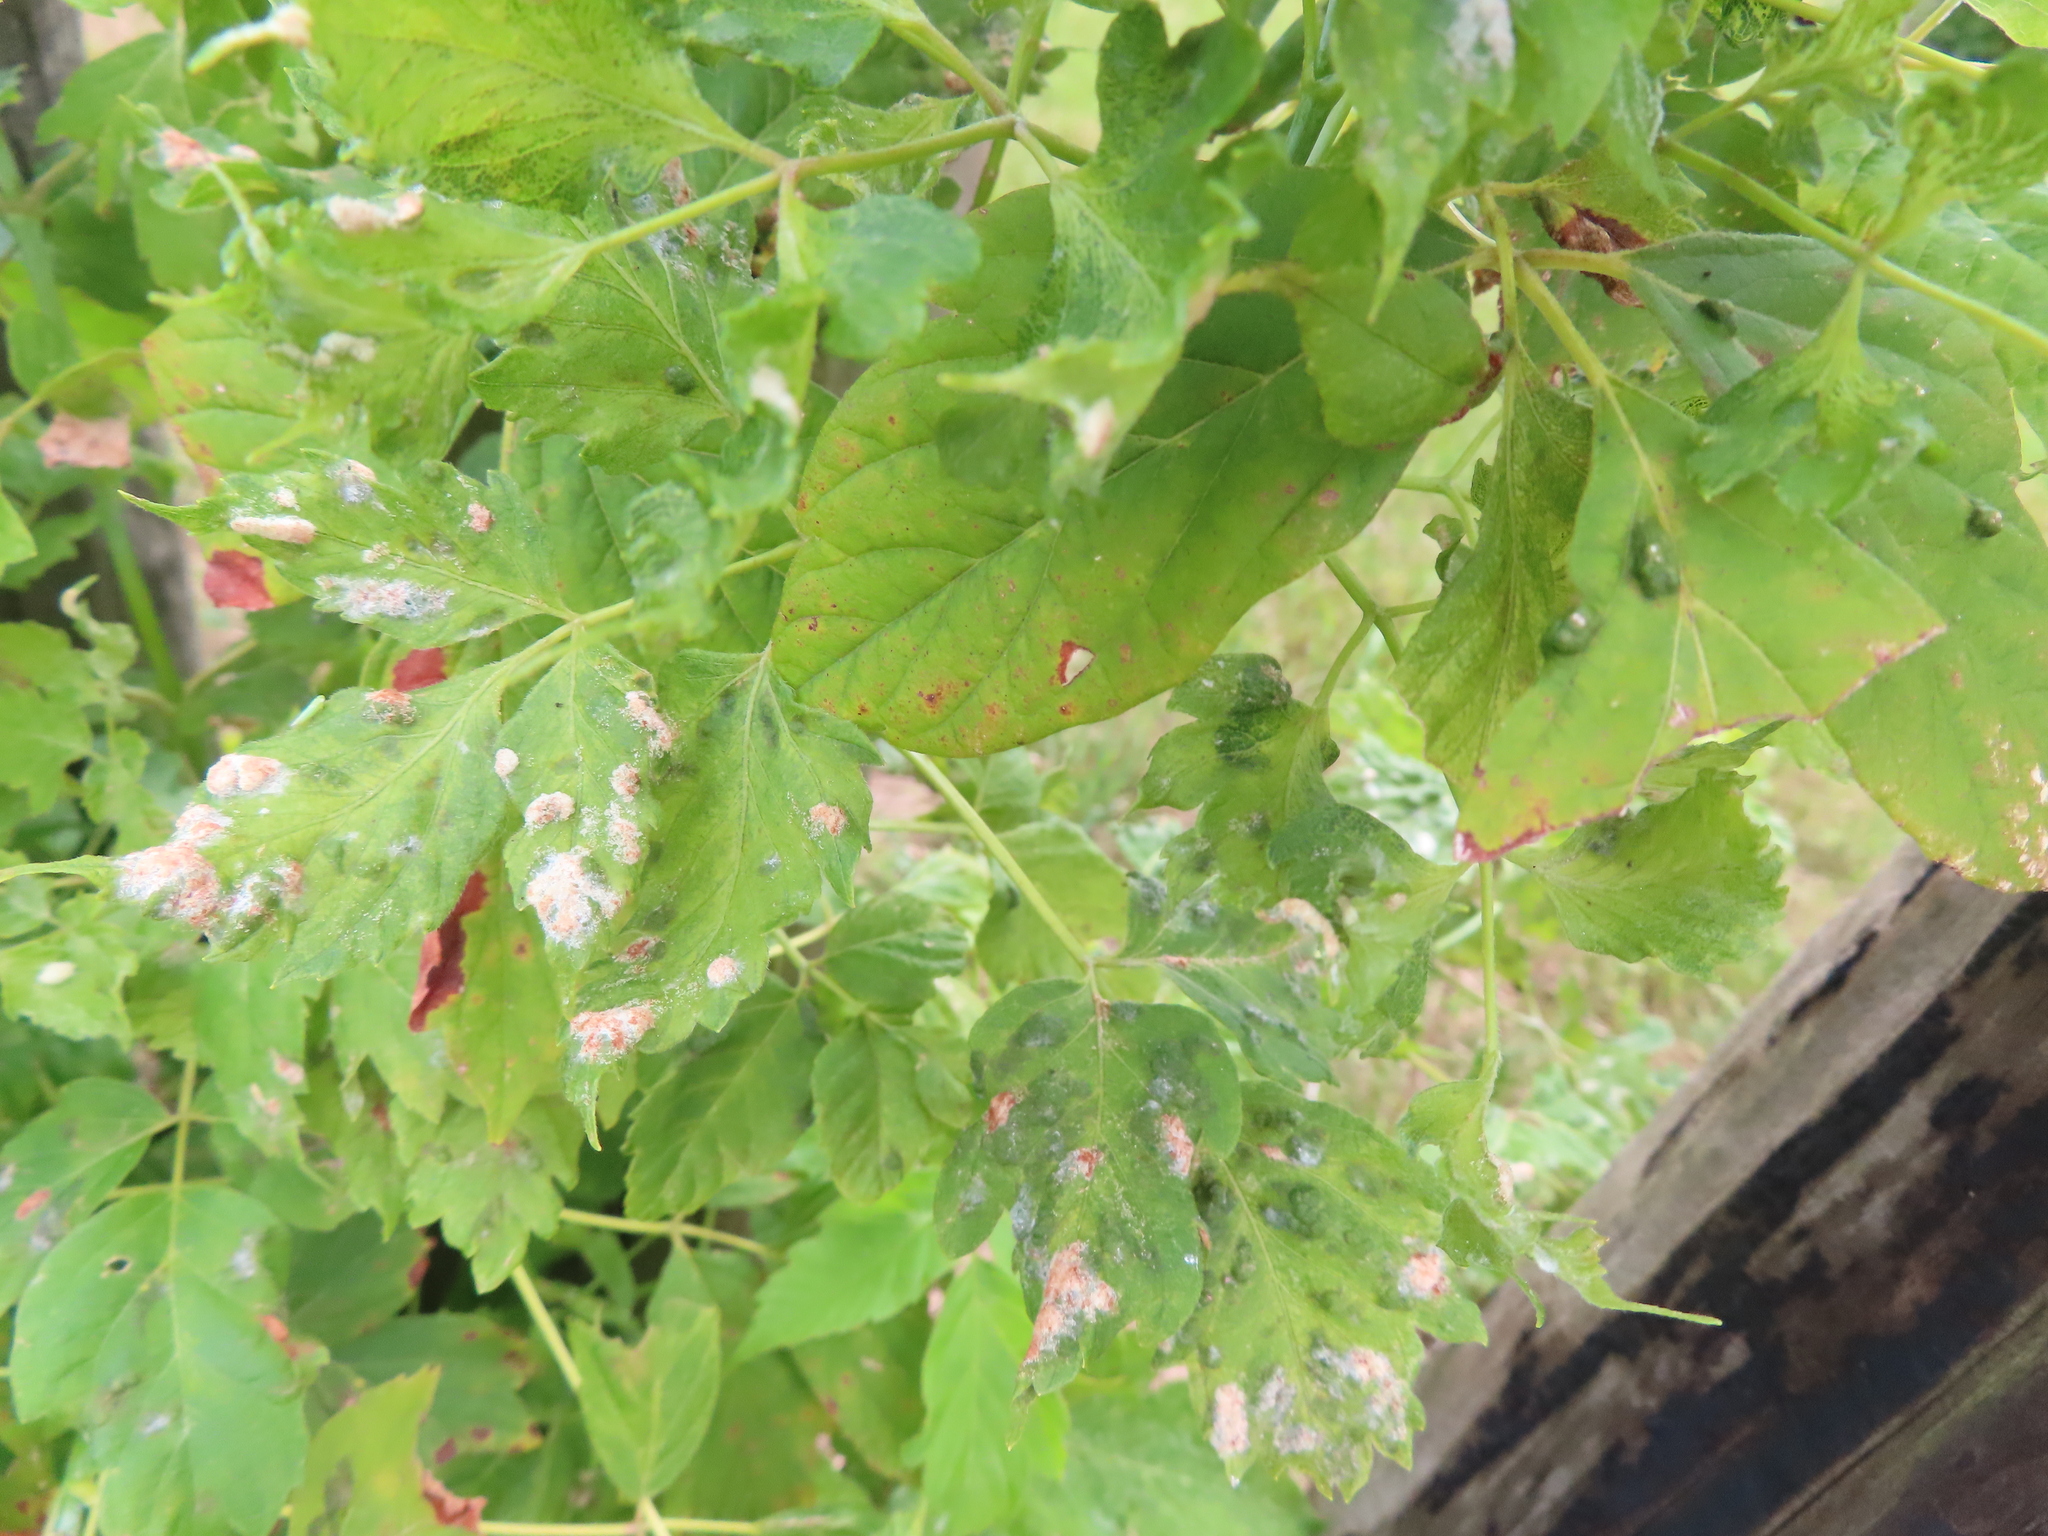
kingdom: Animalia
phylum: Arthropoda
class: Arachnida
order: Trombidiformes
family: Eriophyidae
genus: Aceria
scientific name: Aceria
